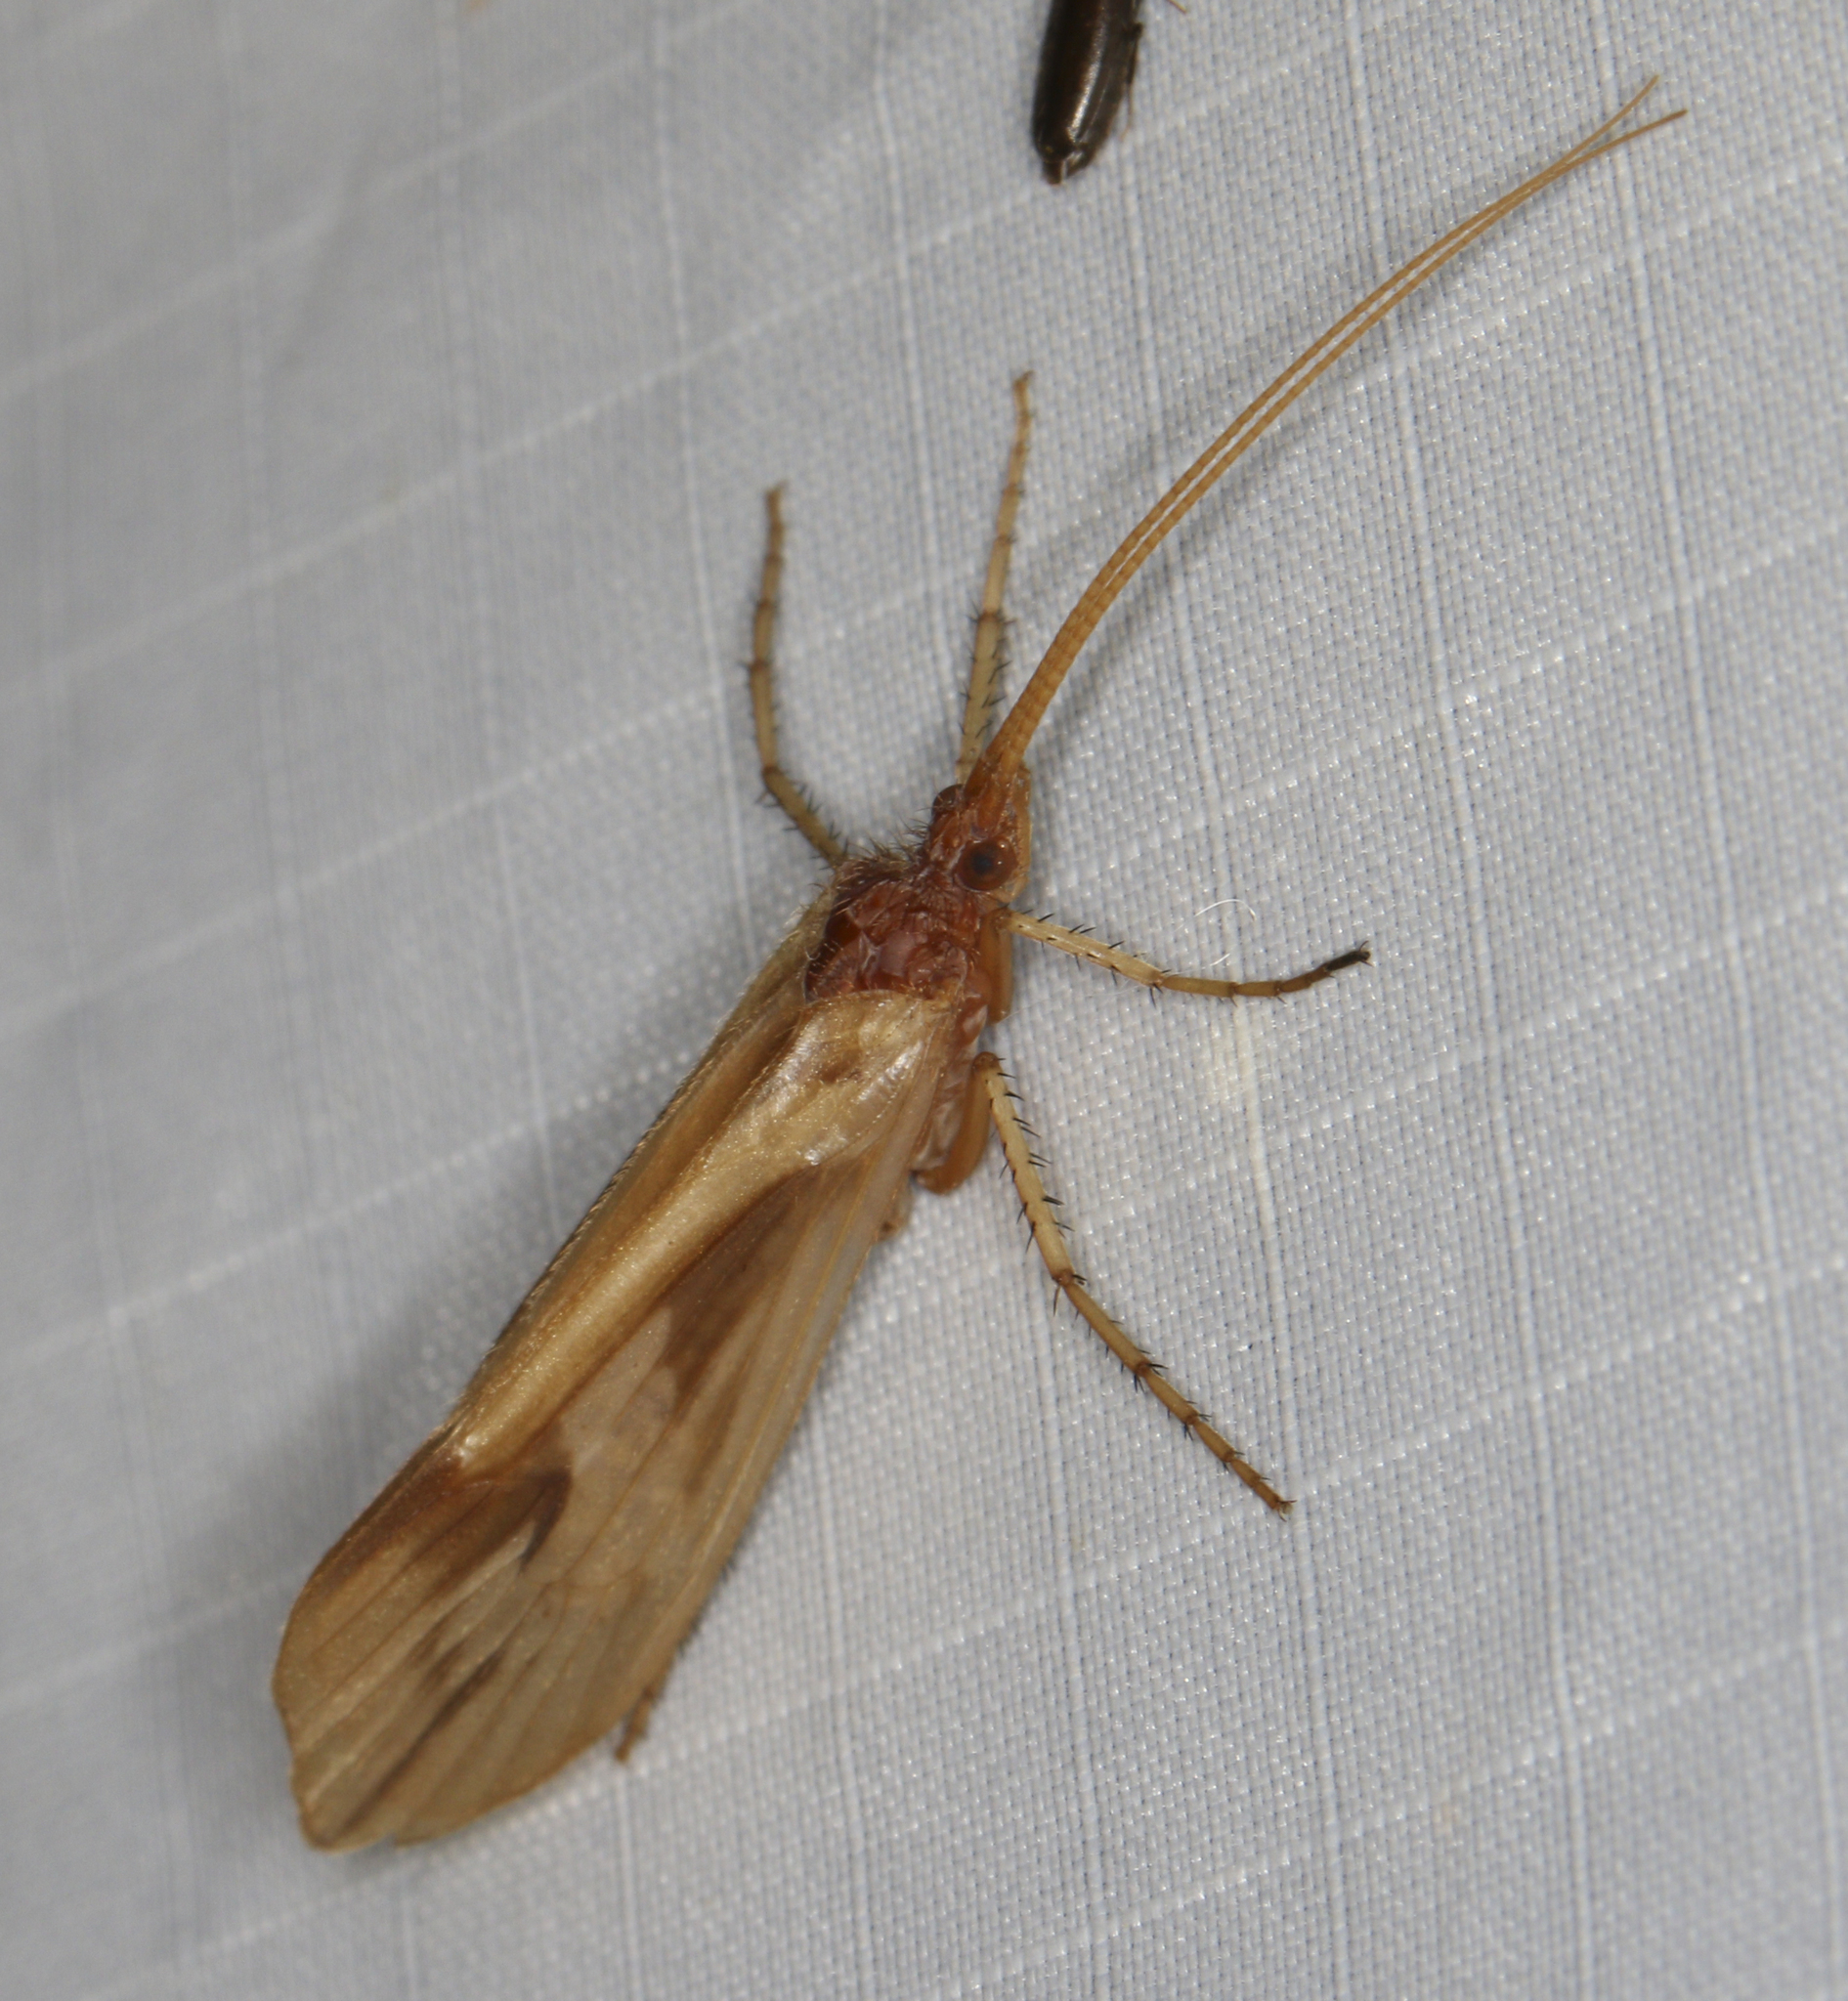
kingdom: Animalia
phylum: Arthropoda
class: Insecta
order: Trichoptera
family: Limnephilidae
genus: Platycentropus
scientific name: Platycentropus radiatus
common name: Chocolate-and-cream sedge
